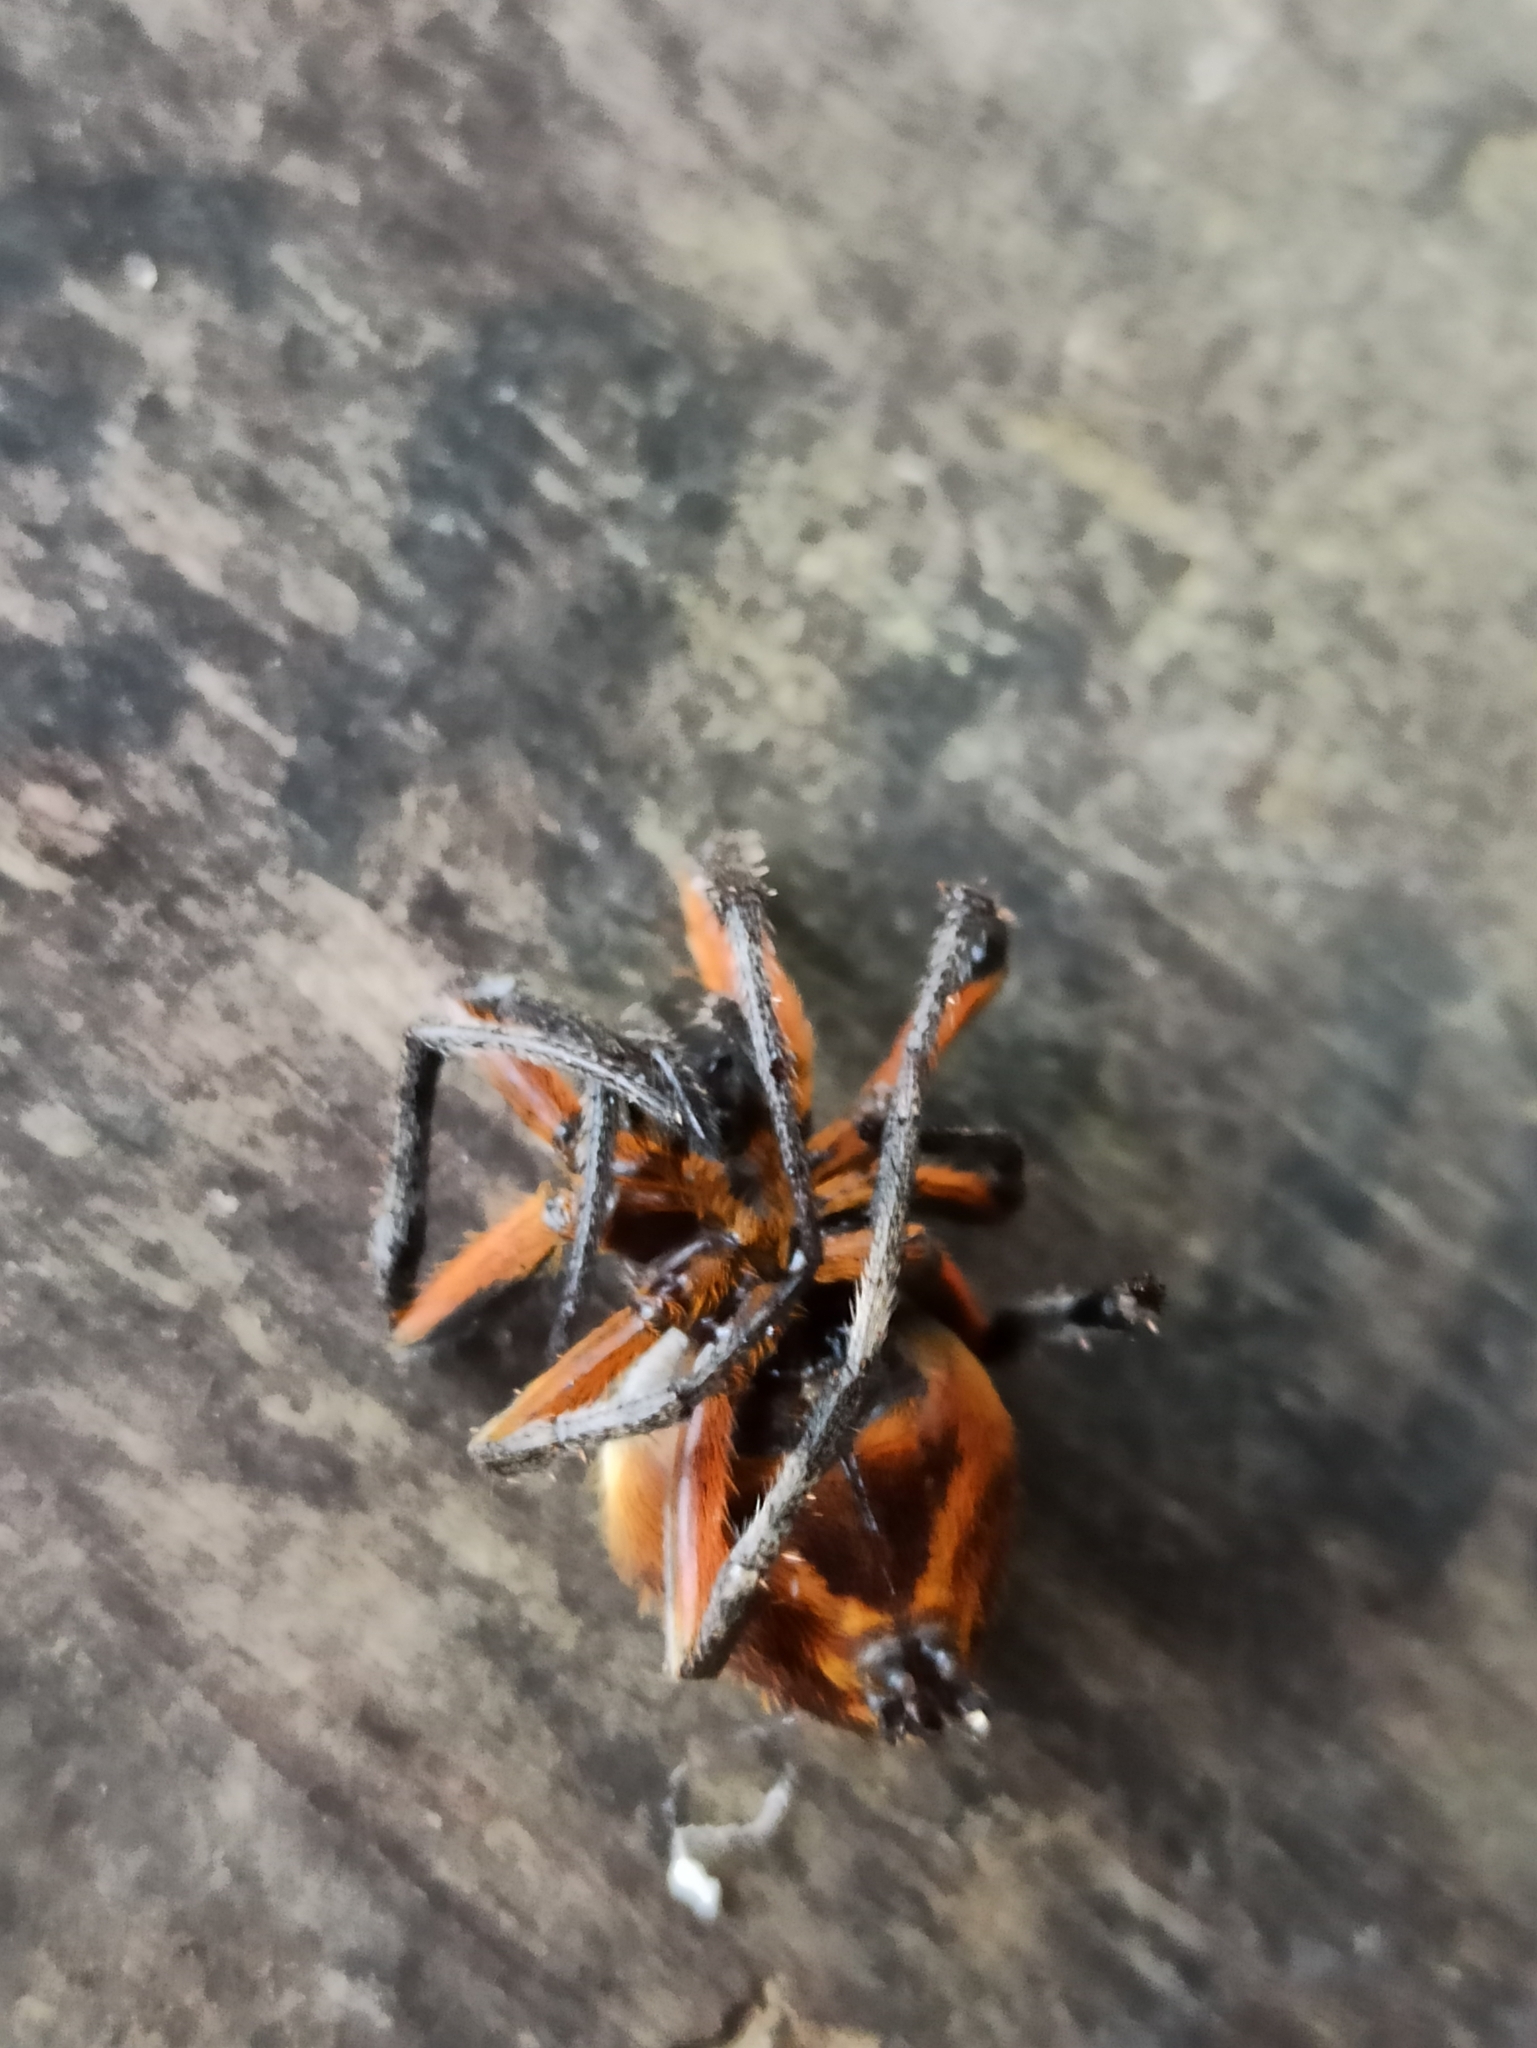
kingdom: Animalia
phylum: Arthropoda
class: Arachnida
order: Araneae
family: Araneidae
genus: Eriophora
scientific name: Eriophora fuliginea
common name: Orb weavers
